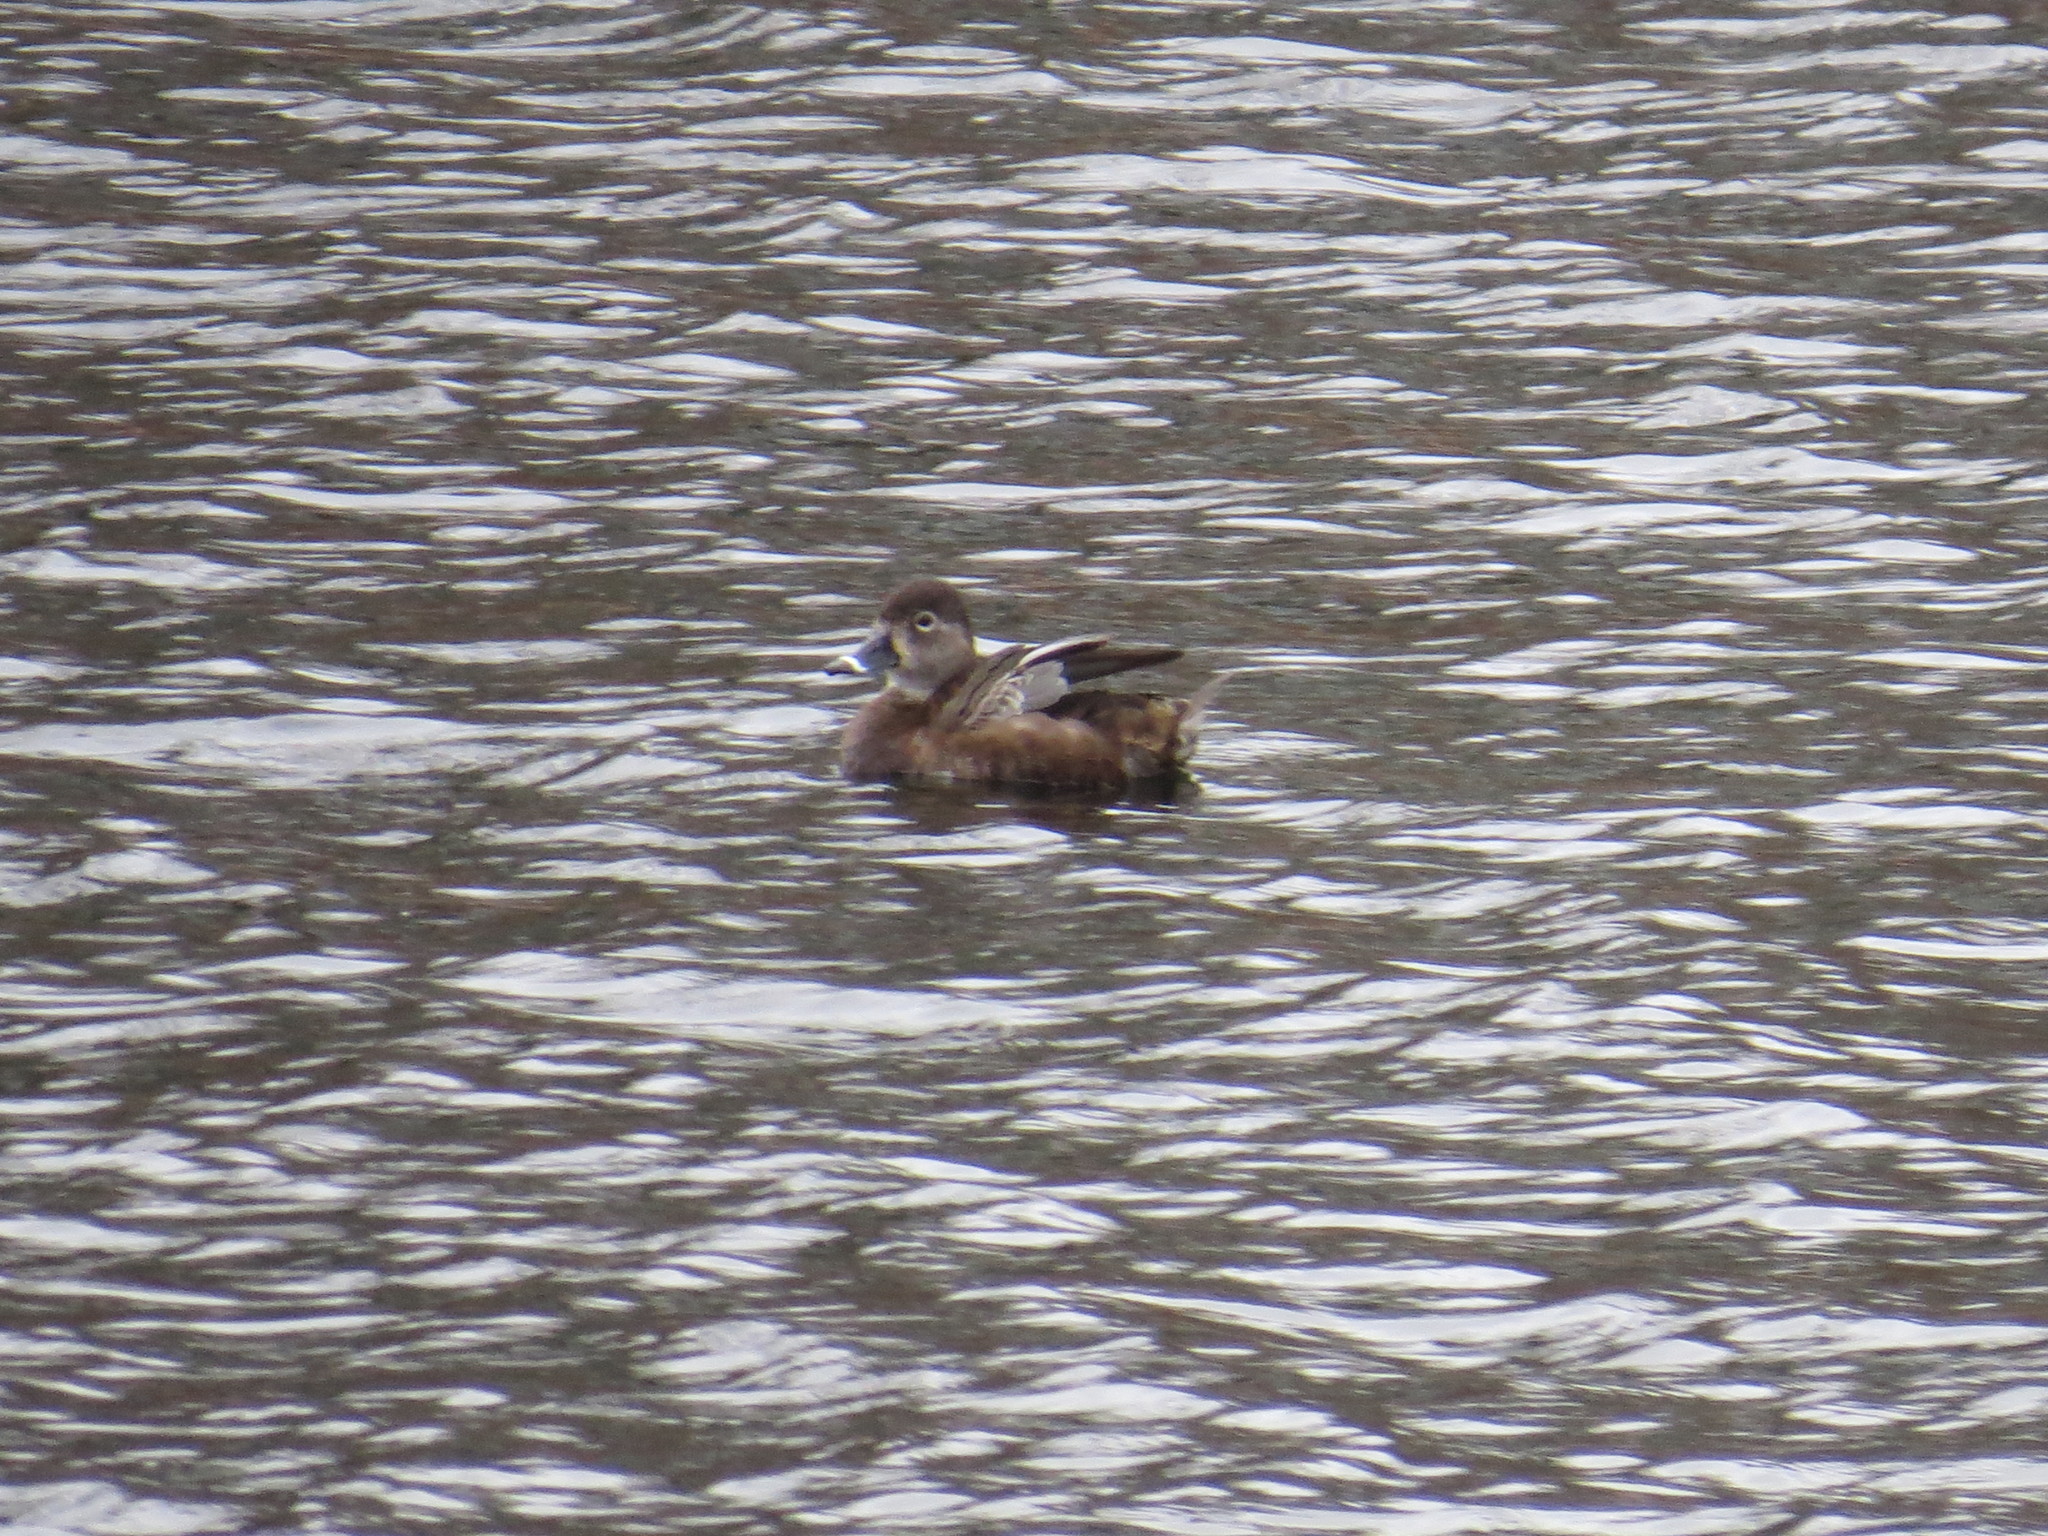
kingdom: Animalia
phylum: Chordata
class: Aves
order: Anseriformes
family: Anatidae
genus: Aythya
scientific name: Aythya collaris
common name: Ring-necked duck
